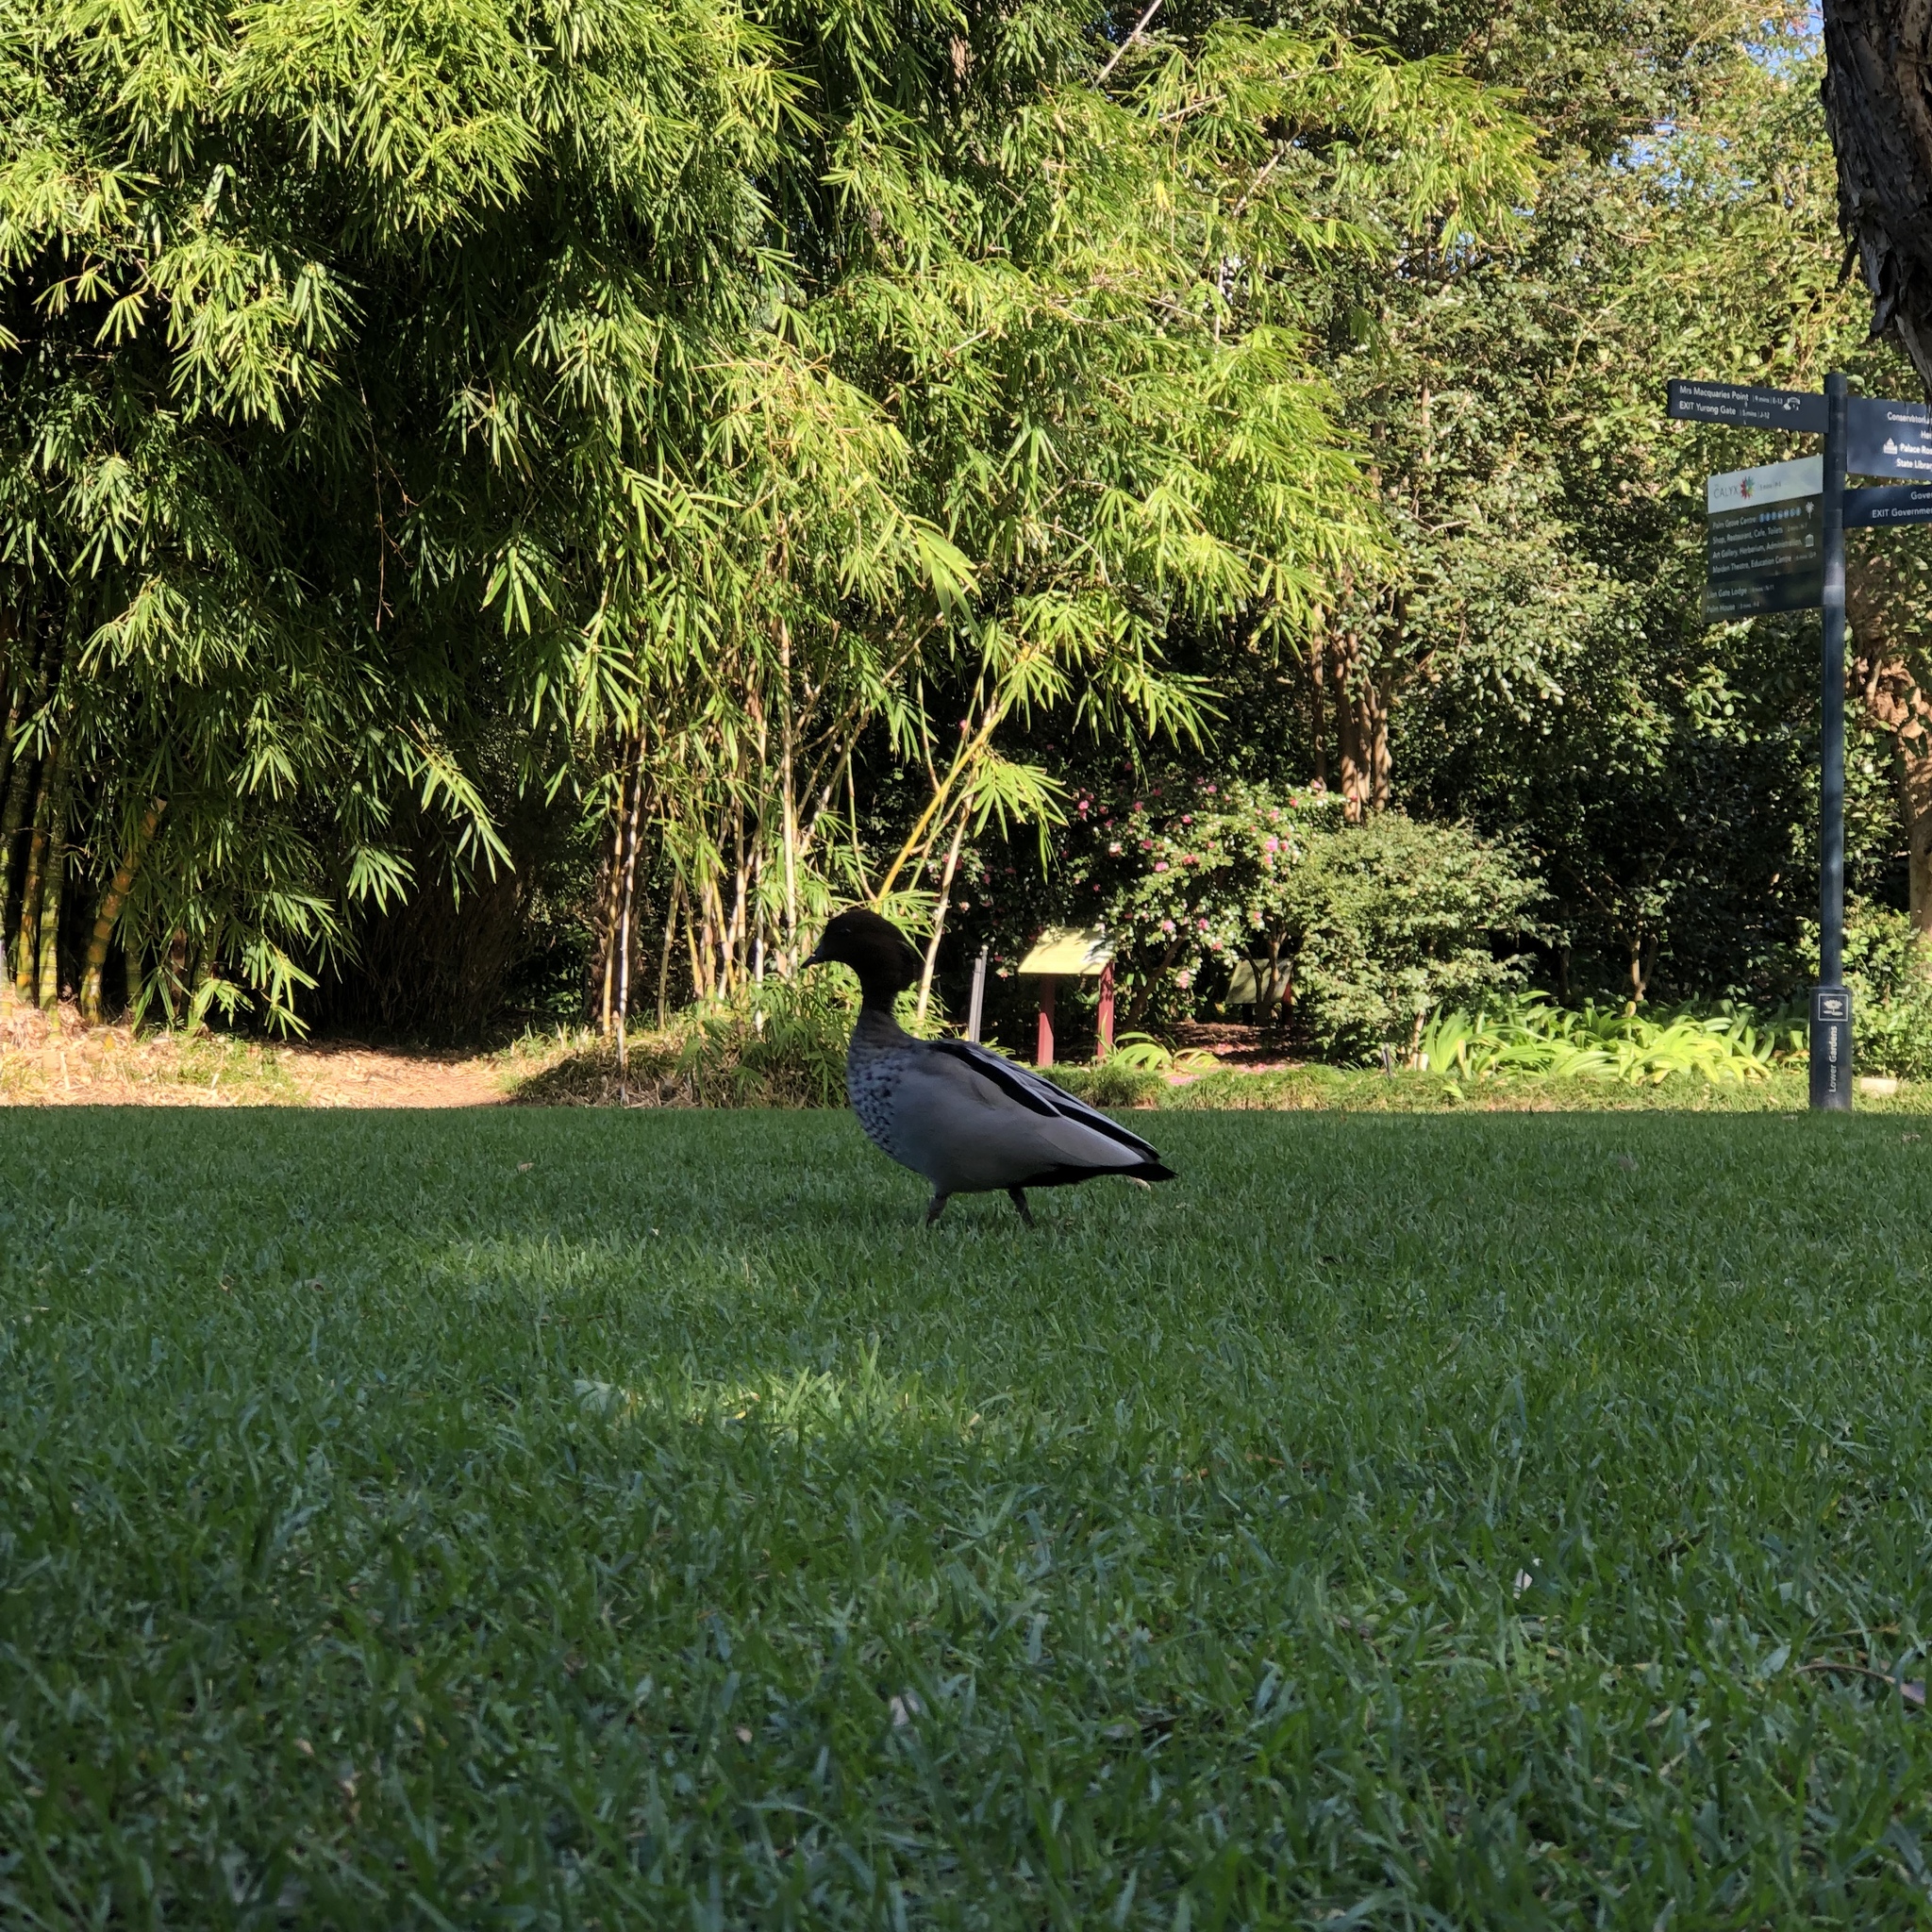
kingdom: Animalia
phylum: Chordata
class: Aves
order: Anseriformes
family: Anatidae
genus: Chenonetta
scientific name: Chenonetta jubata
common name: Maned duck
